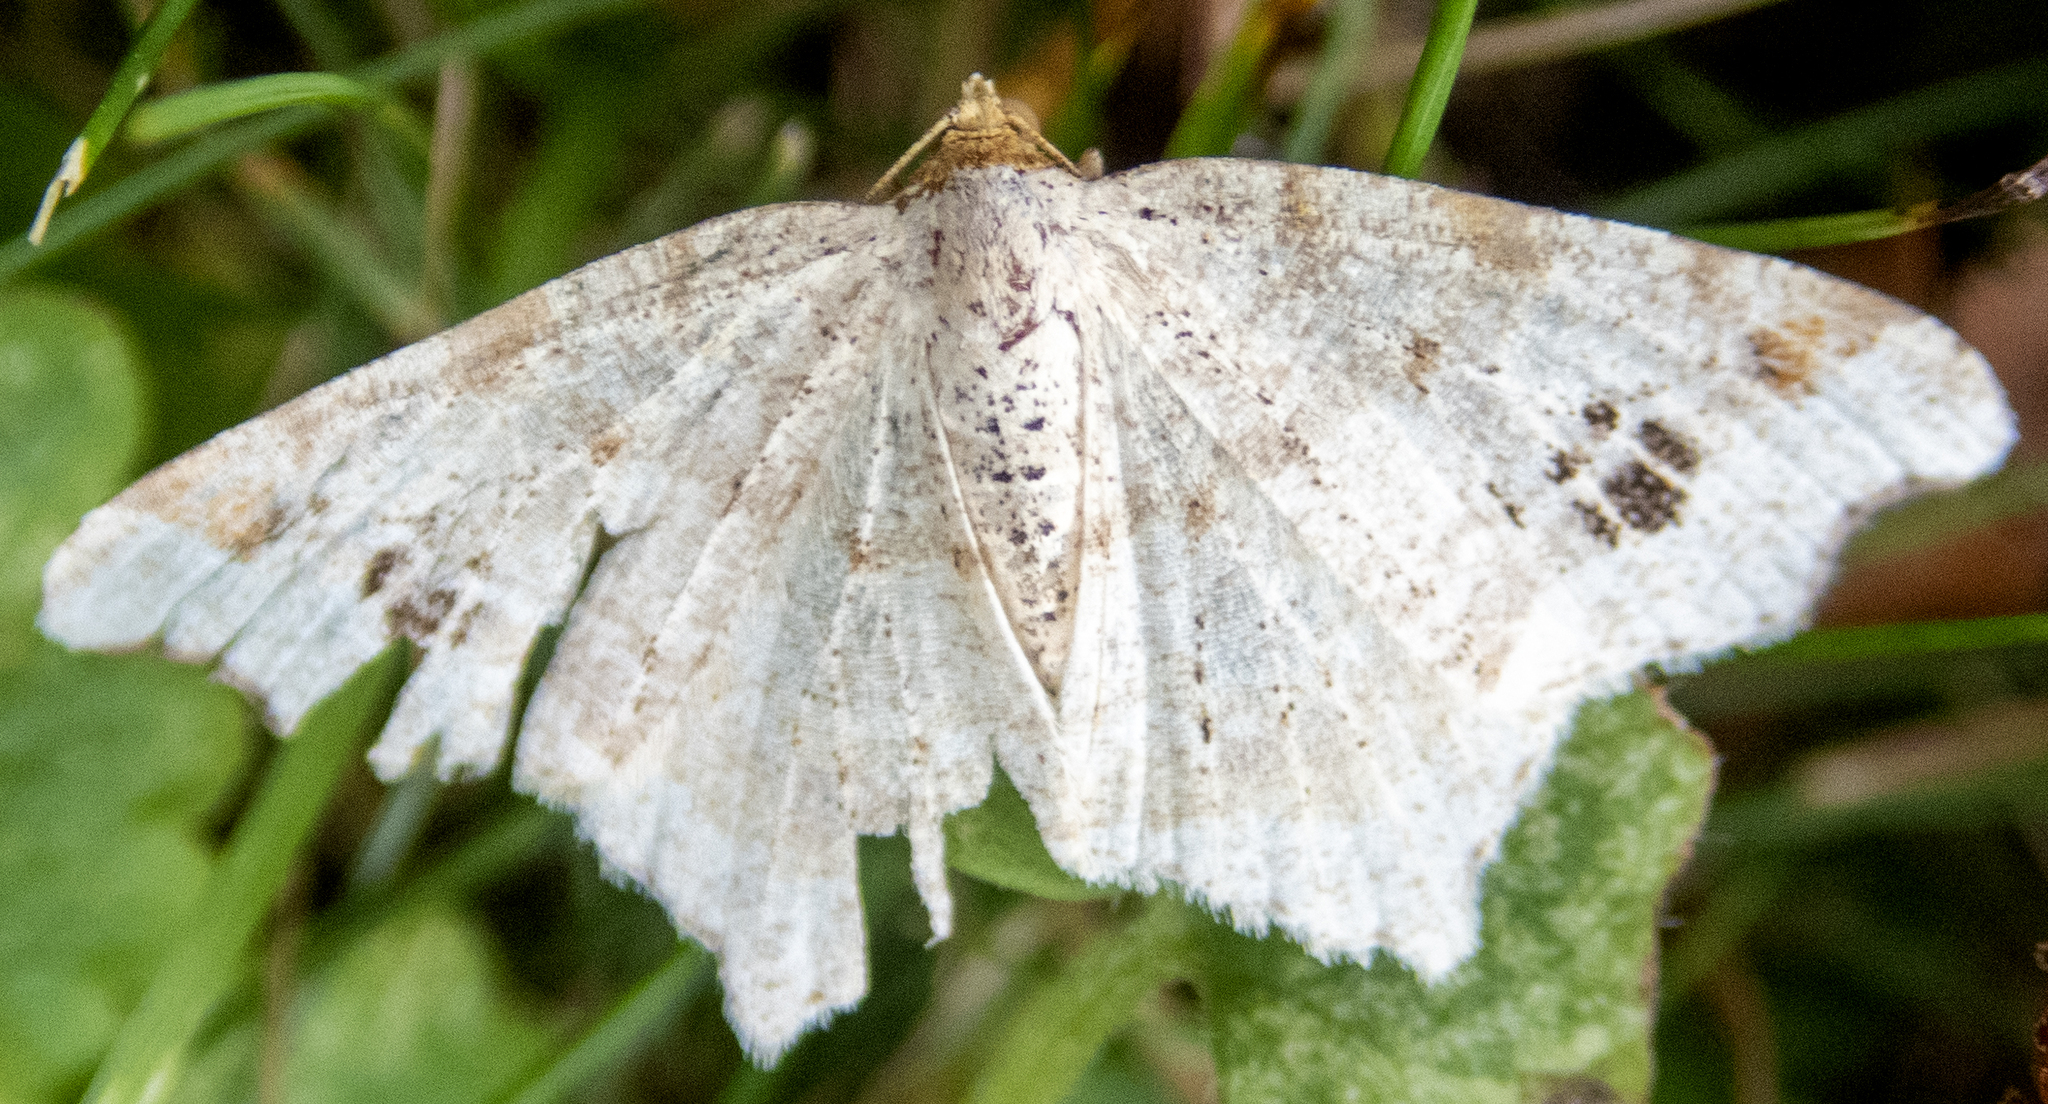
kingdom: Animalia
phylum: Arthropoda
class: Insecta
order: Lepidoptera
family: Geometridae
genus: Macaria
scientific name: Macaria aemulataria
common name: Common angle
